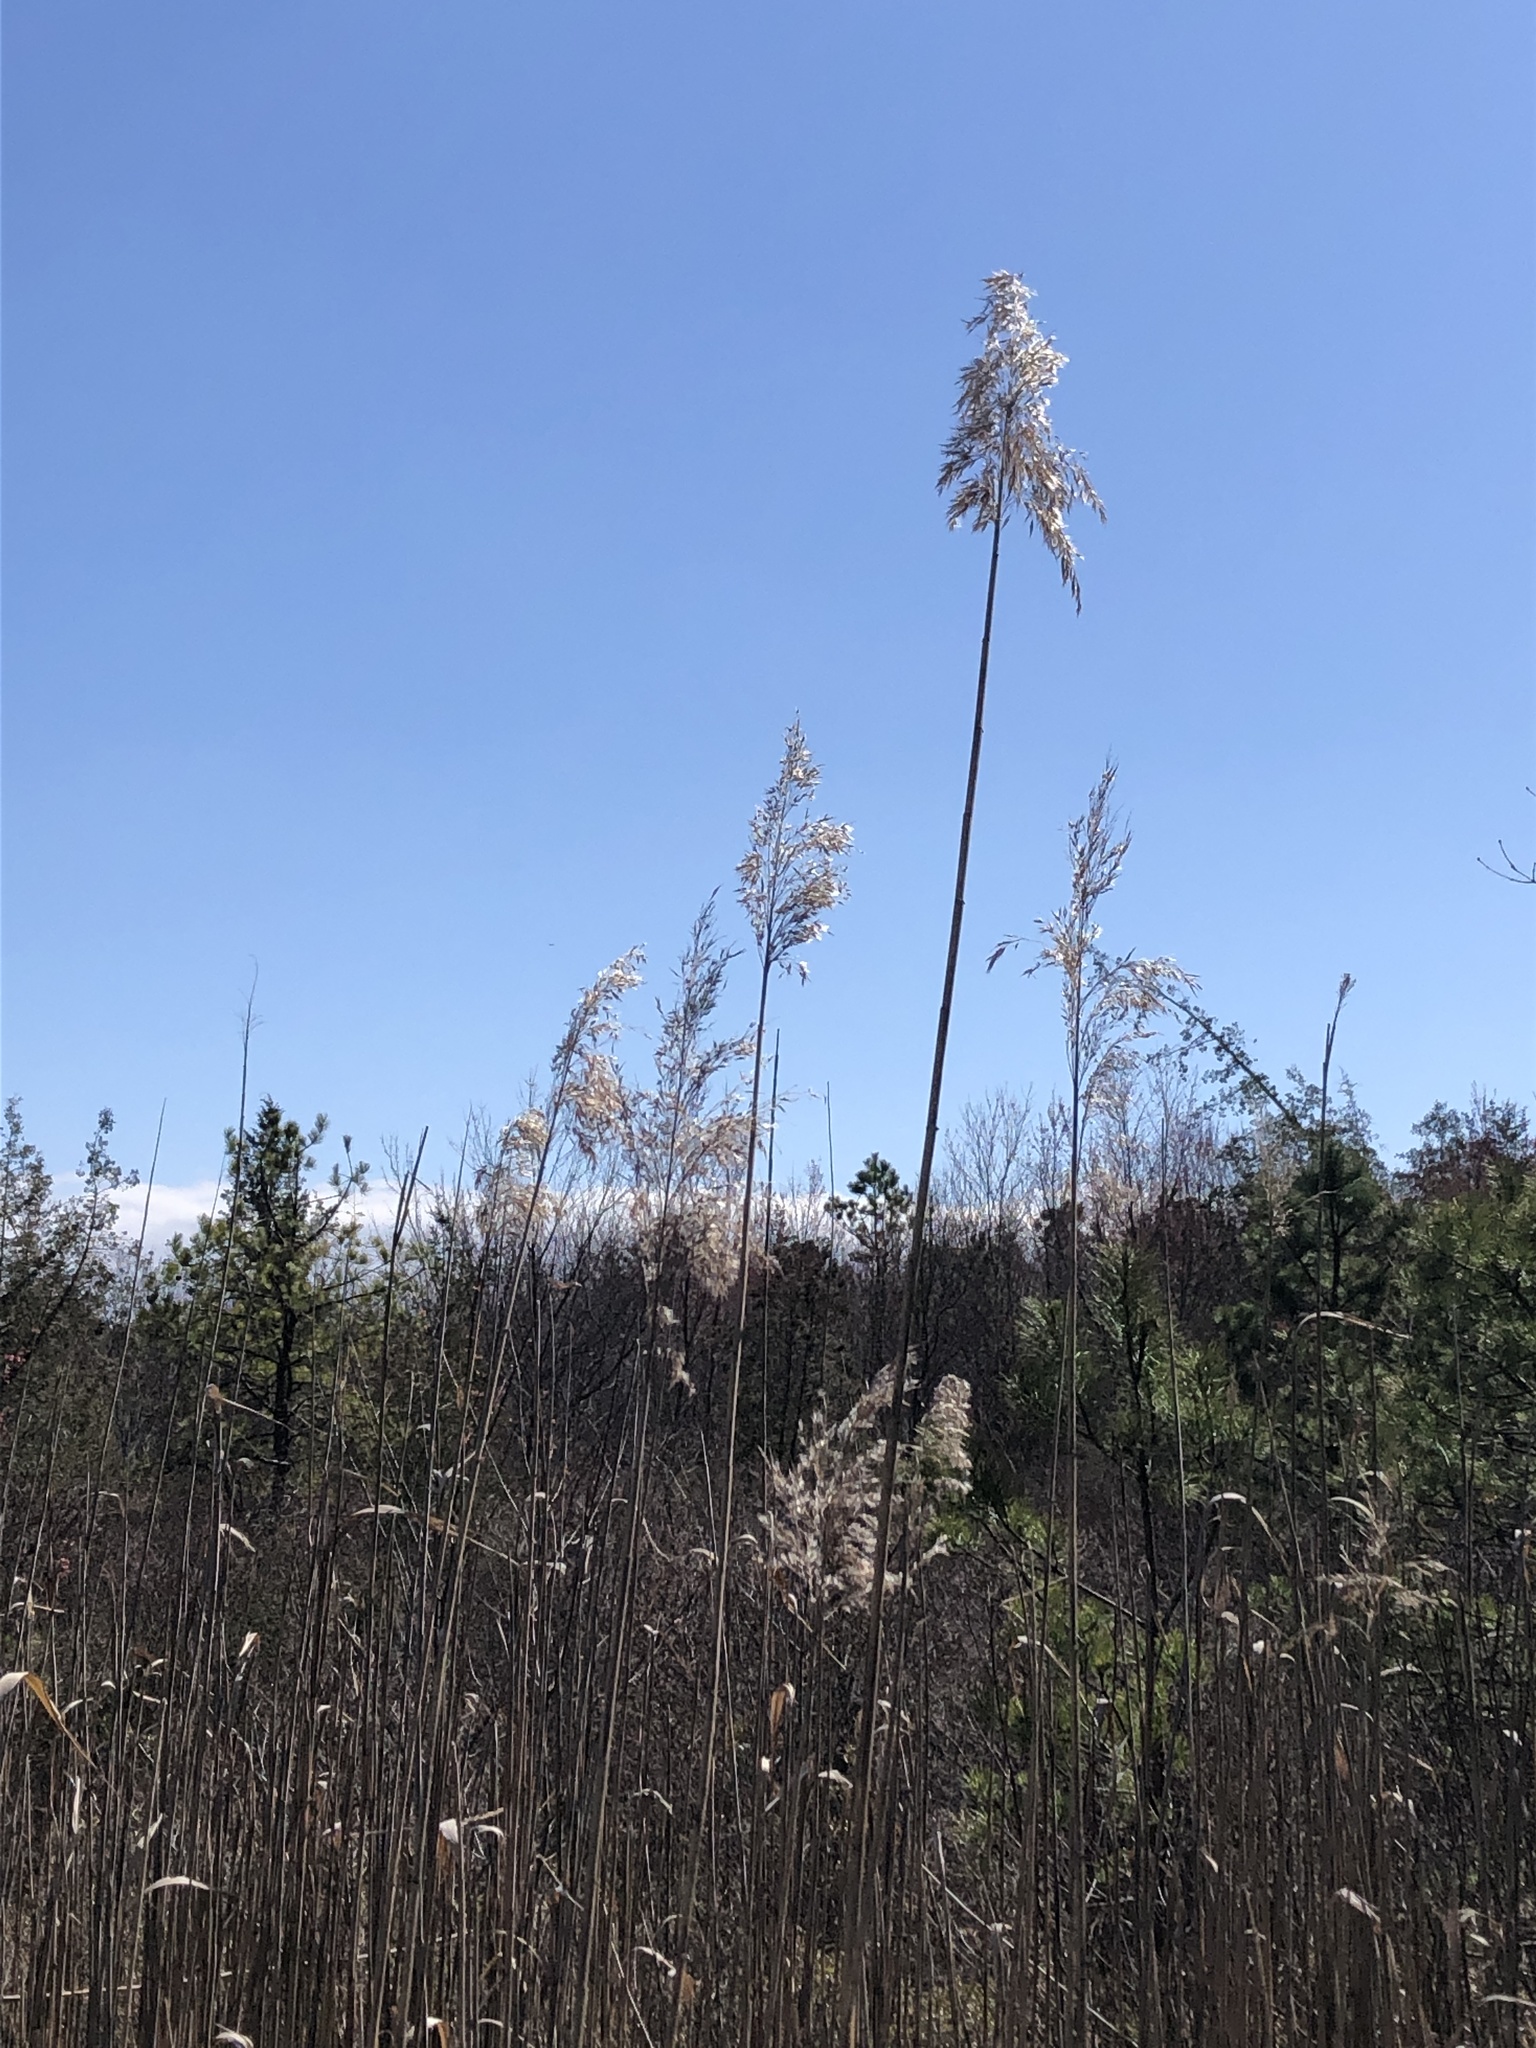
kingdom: Plantae
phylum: Tracheophyta
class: Liliopsida
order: Poales
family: Poaceae
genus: Phragmites
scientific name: Phragmites australis
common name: Common reed
